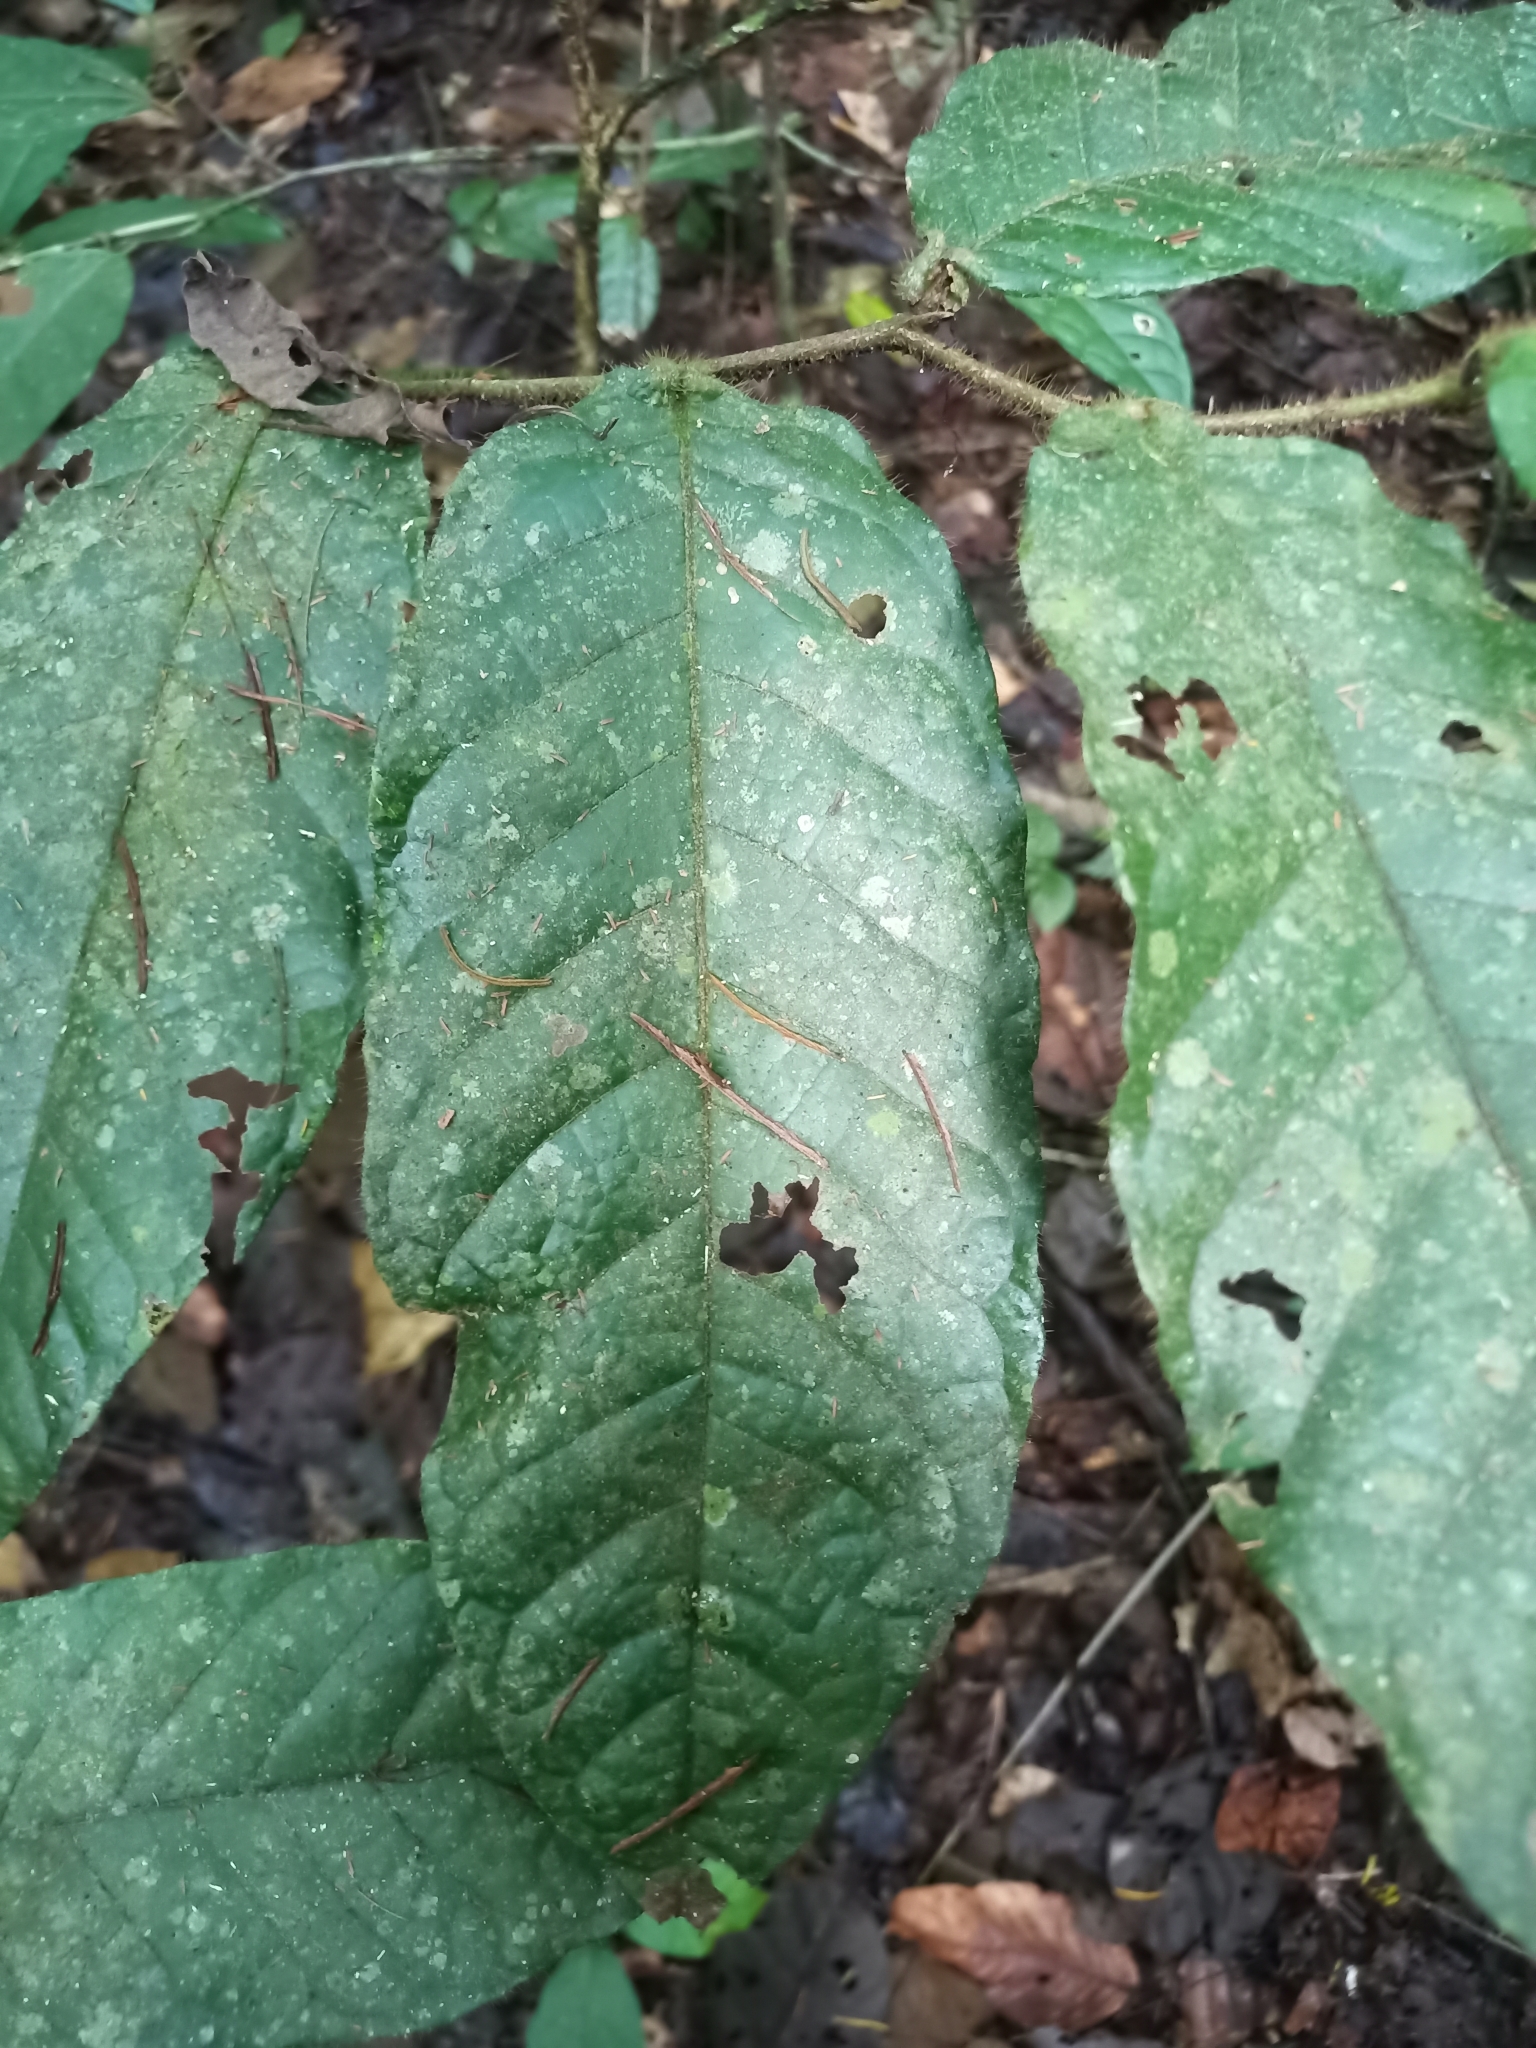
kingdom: Plantae
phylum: Tracheophyta
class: Magnoliopsida
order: Malpighiales
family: Chrysobalanaceae
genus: Hirtella
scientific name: Hirtella physophora
